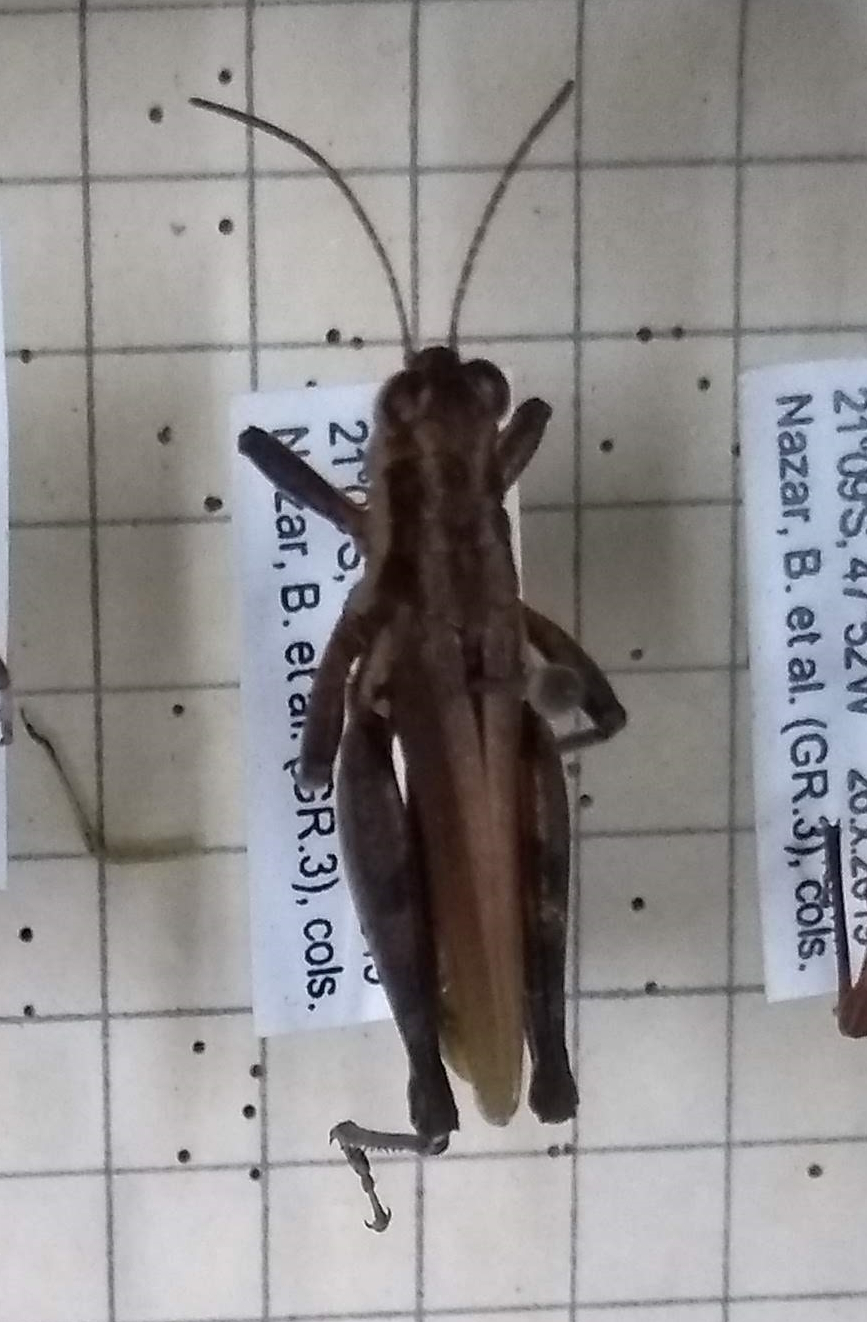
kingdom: Animalia
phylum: Arthropoda
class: Insecta
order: Orthoptera
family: Acrididae
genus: Ronderosia
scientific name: Ronderosia bergii
